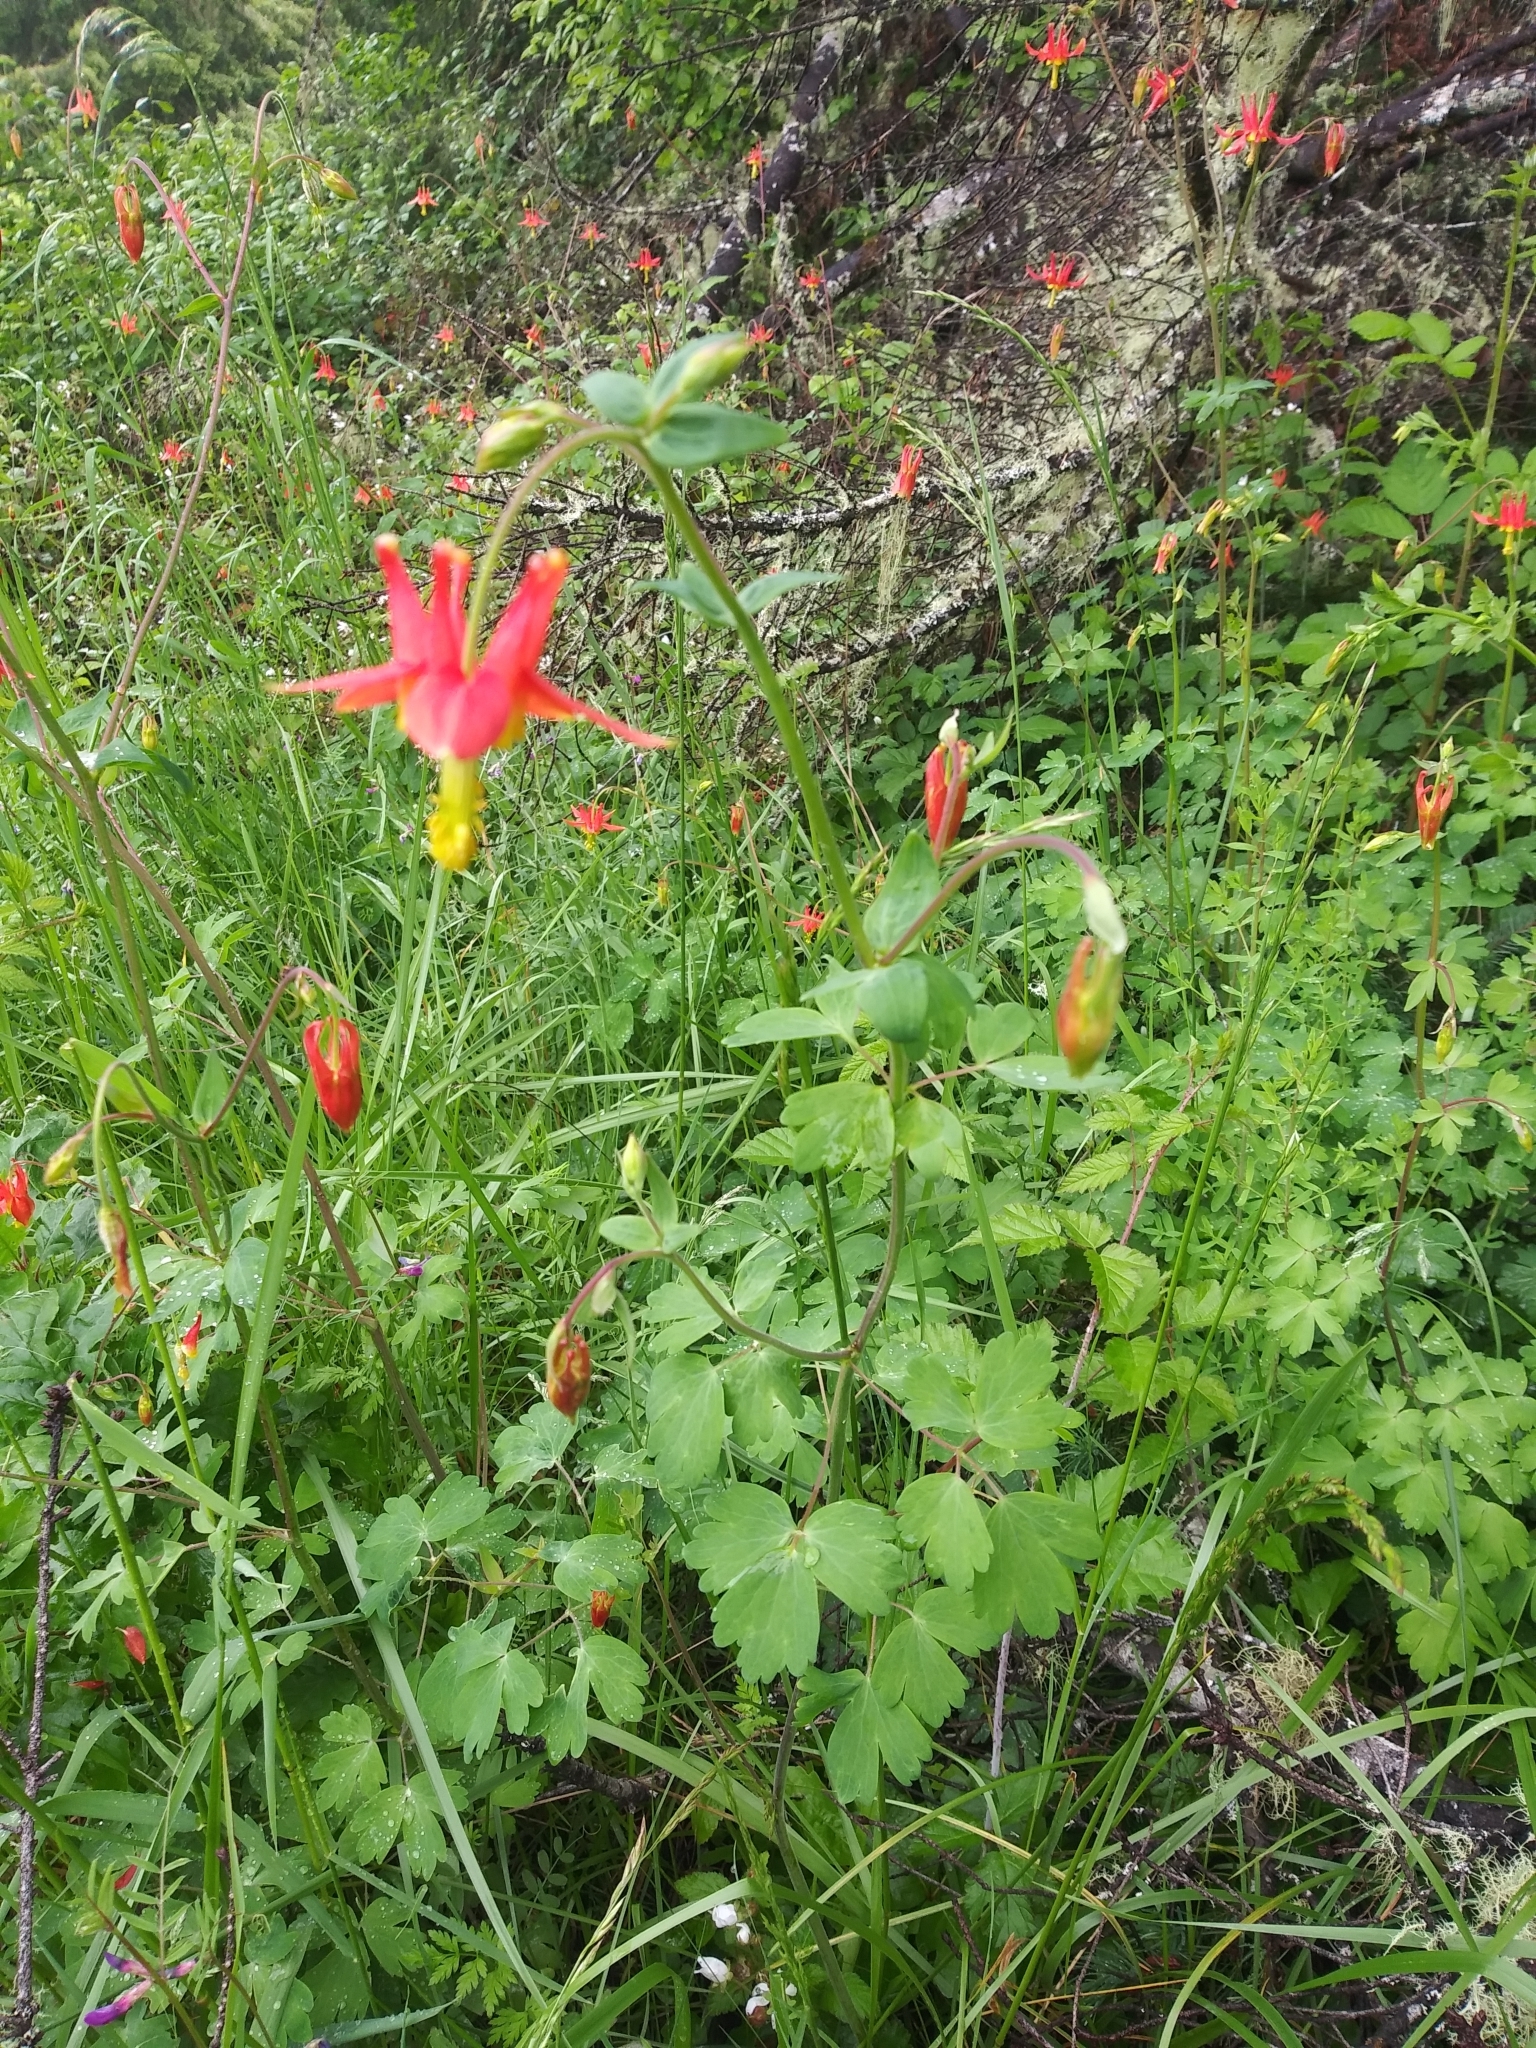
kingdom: Plantae
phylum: Tracheophyta
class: Magnoliopsida
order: Ranunculales
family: Ranunculaceae
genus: Aquilegia
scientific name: Aquilegia formosa
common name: Sitka columbine
